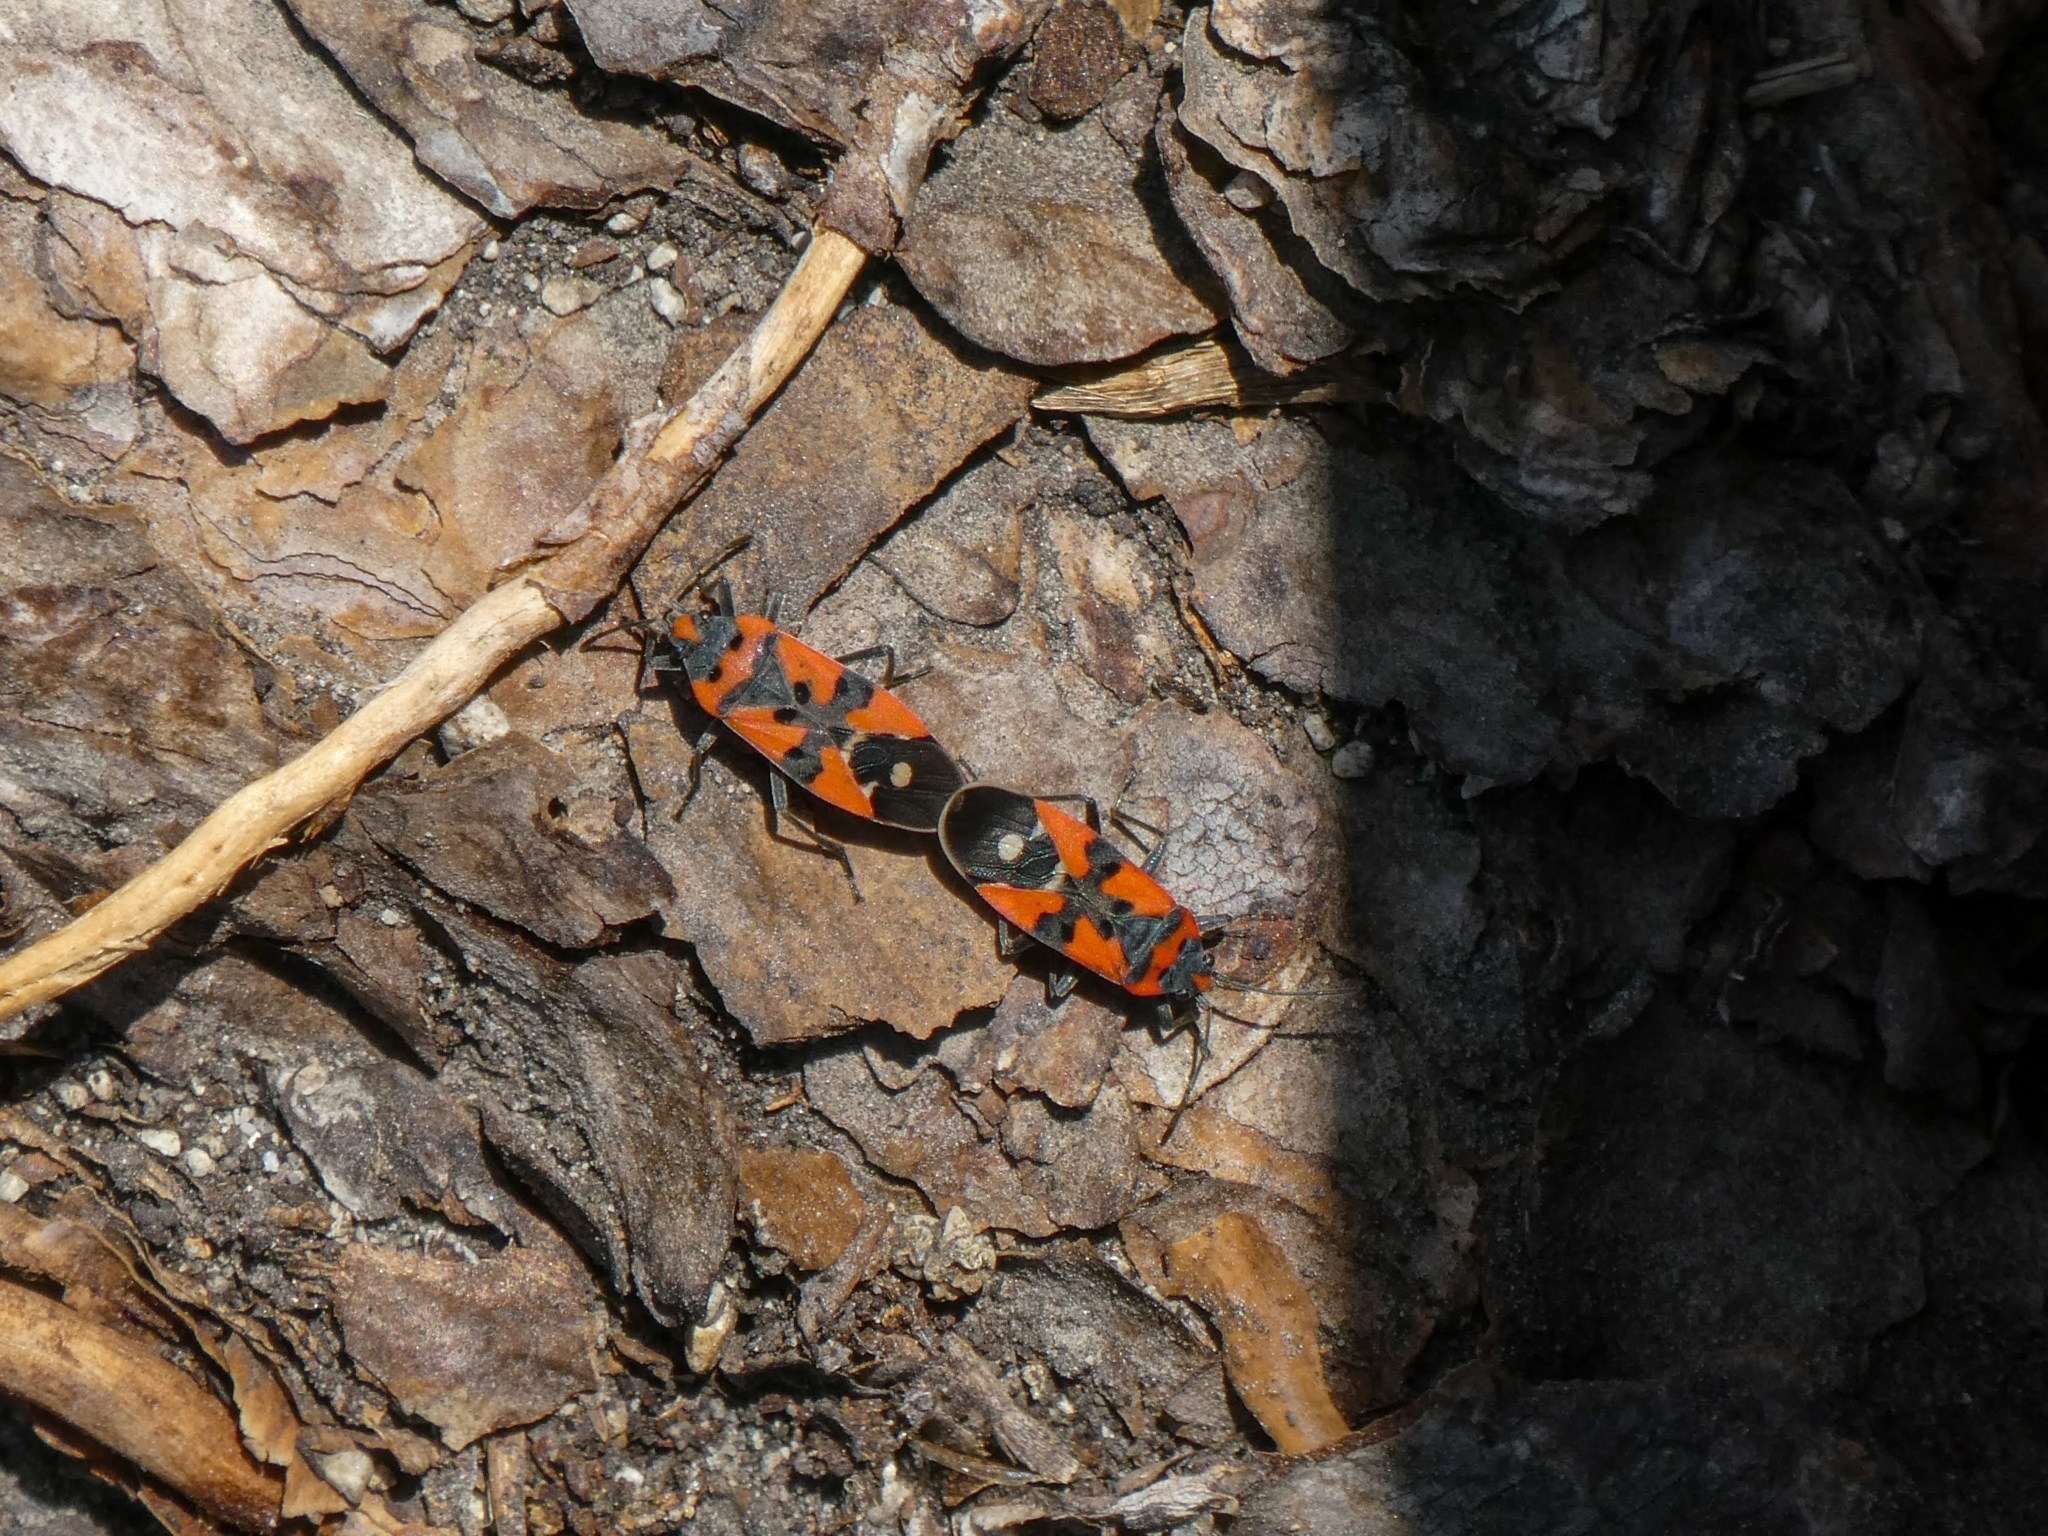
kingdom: Animalia
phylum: Arthropoda
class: Insecta
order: Hemiptera
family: Lygaeidae
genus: Lygaeus
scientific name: Lygaeus equestris
